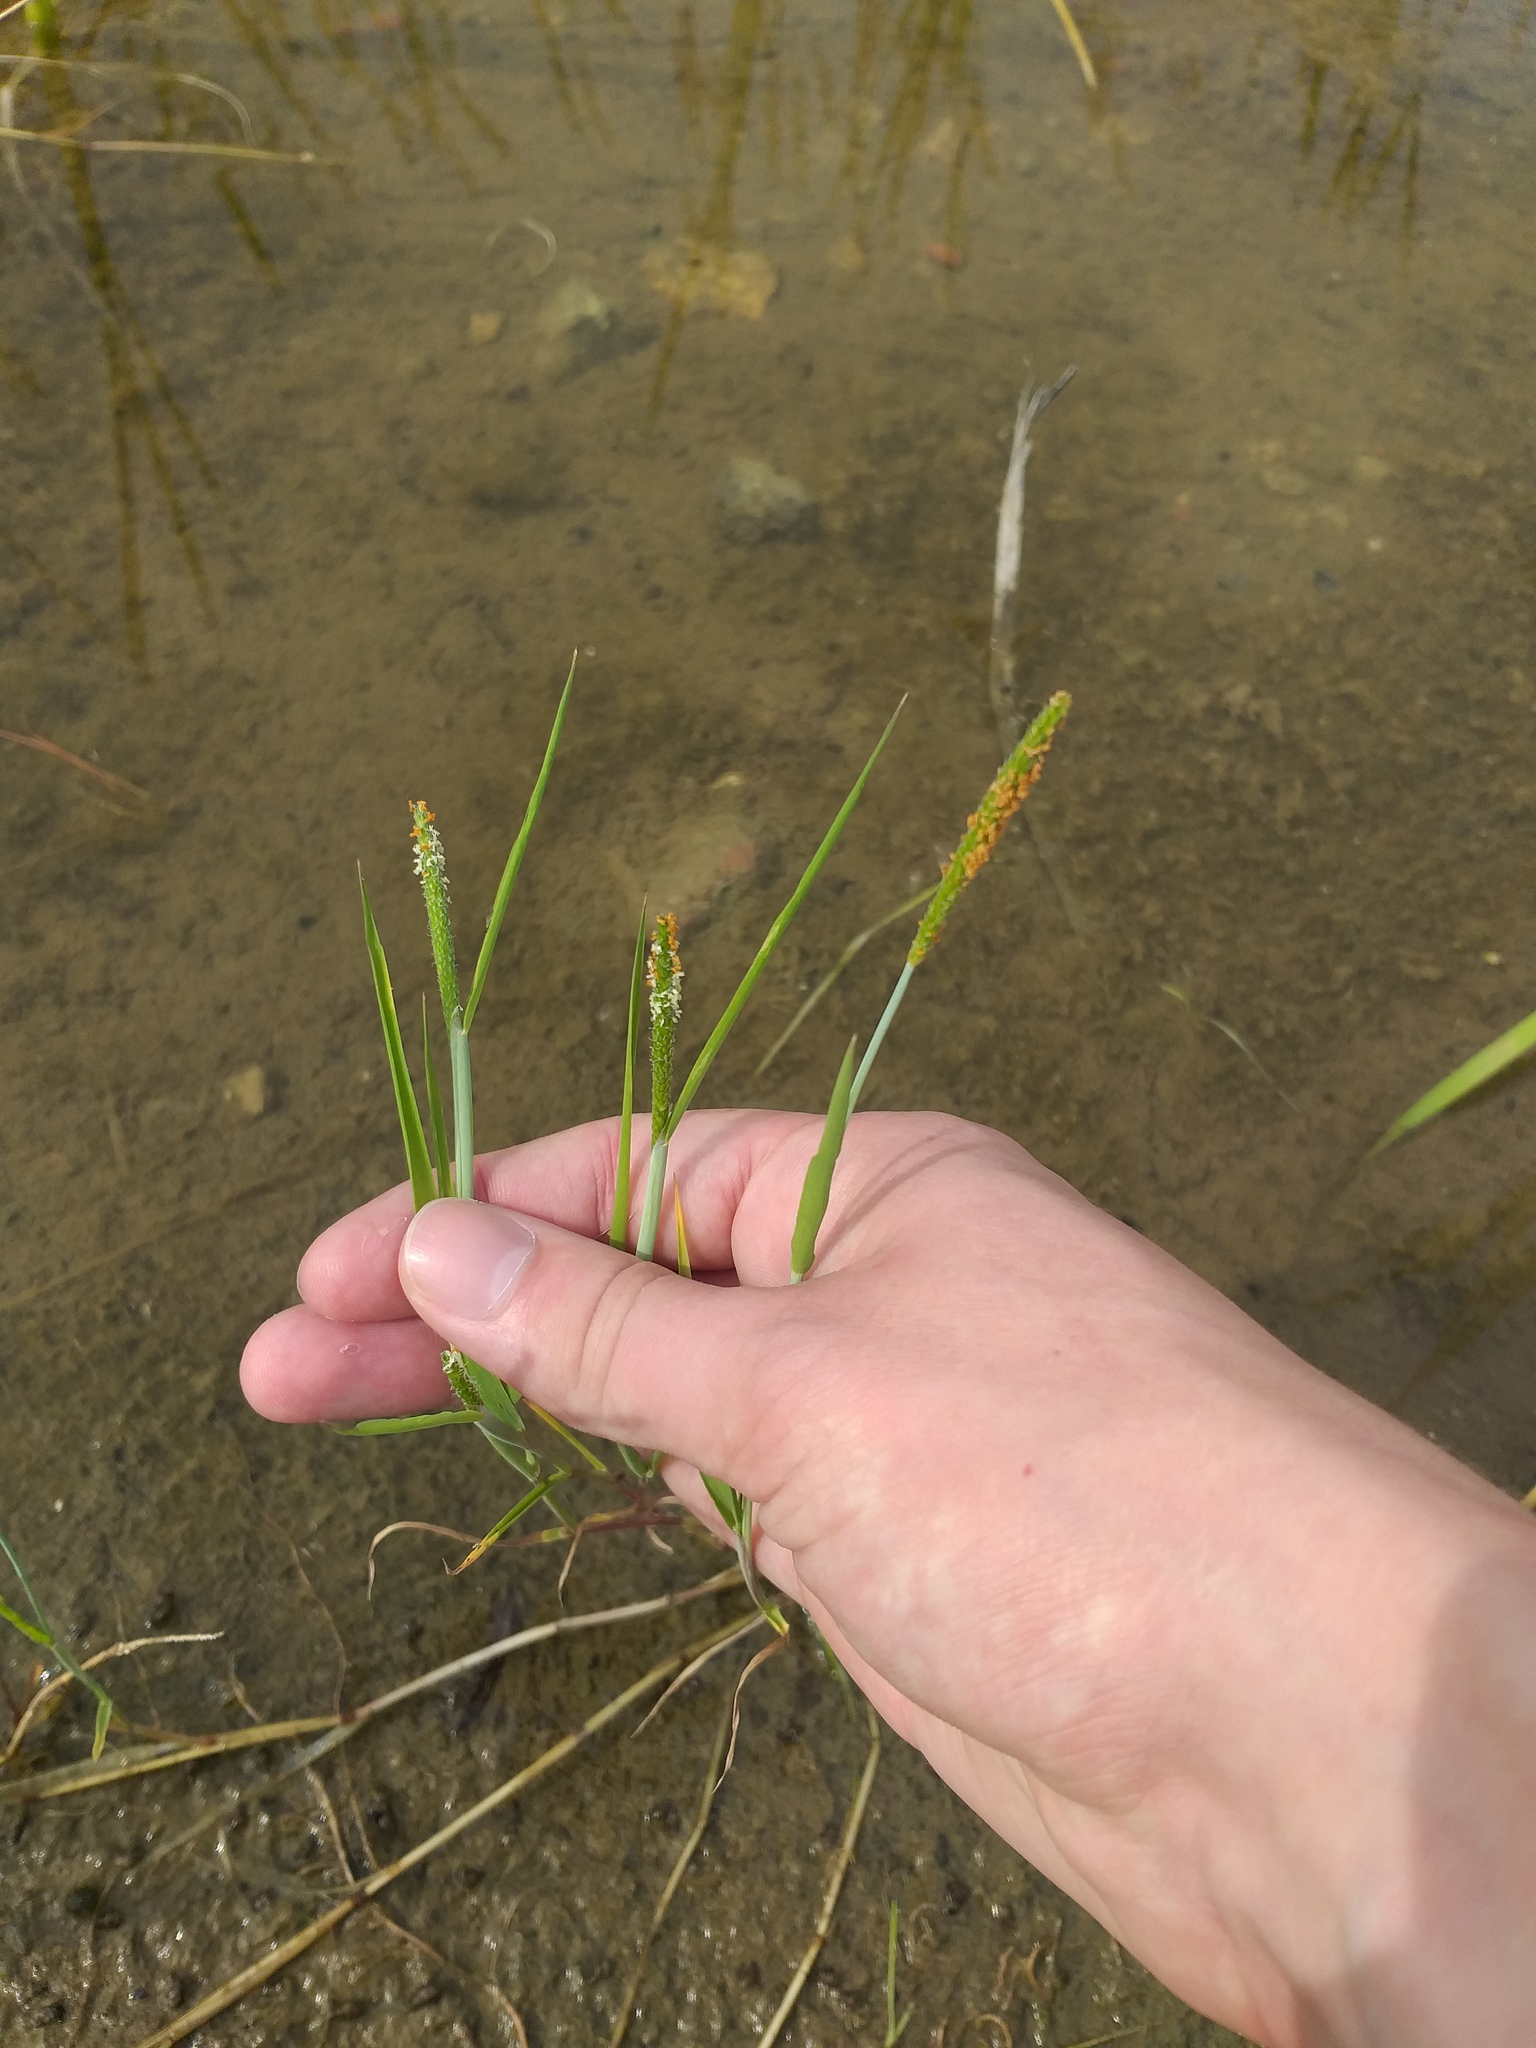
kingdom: Plantae
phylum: Tracheophyta
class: Liliopsida
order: Poales
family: Poaceae
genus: Alopecurus
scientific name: Alopecurus aequalis
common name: Orange foxtail
